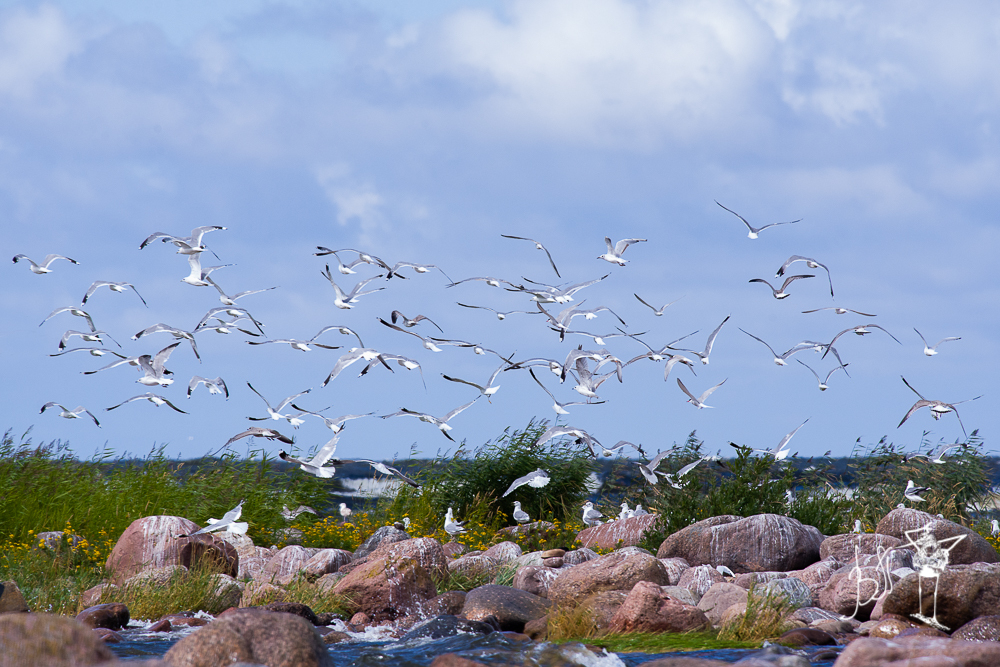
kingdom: Animalia
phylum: Chordata
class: Aves
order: Charadriiformes
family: Laridae
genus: Larus
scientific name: Larus canus
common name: Mew gull
